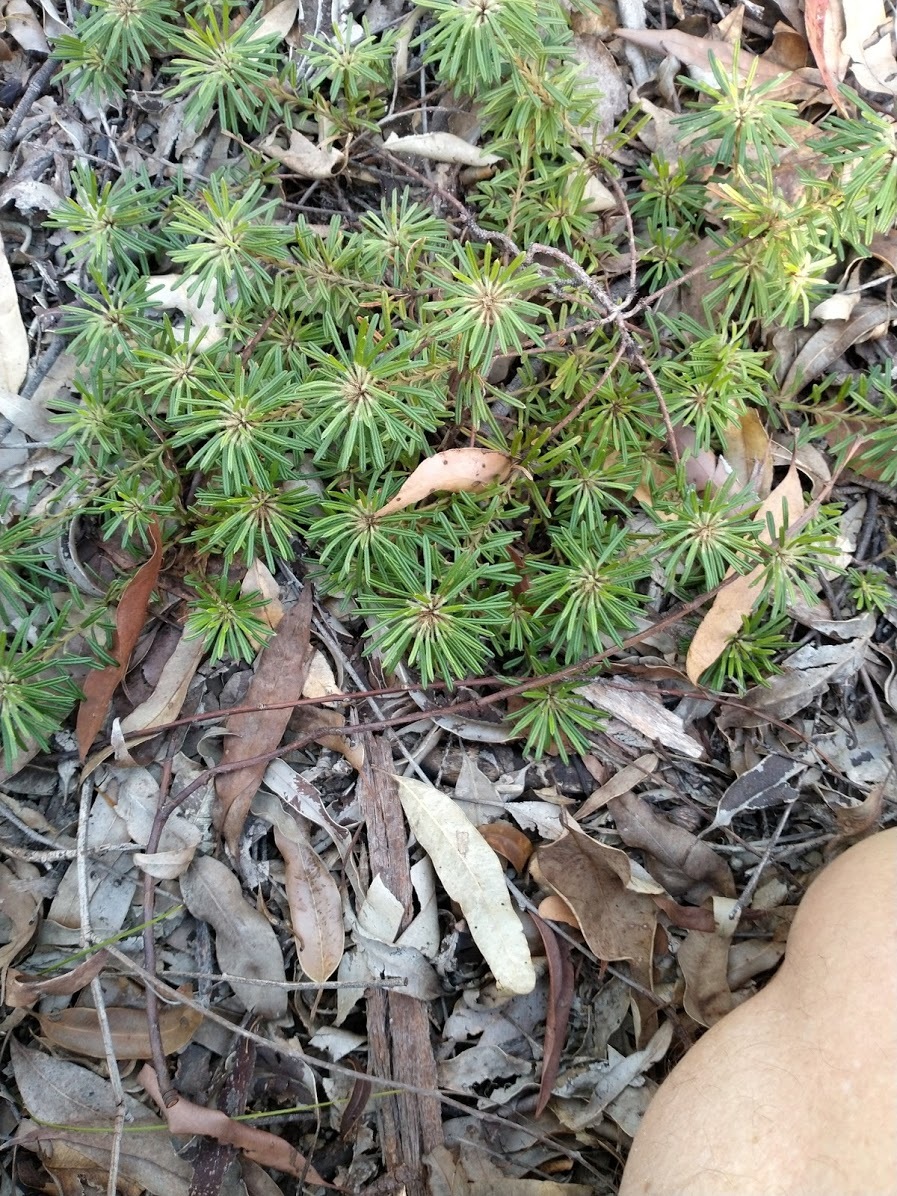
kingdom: Plantae
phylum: Tracheophyta
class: Magnoliopsida
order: Fabales
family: Fabaceae
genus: Pultenaea
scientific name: Pultenaea petiolaris
